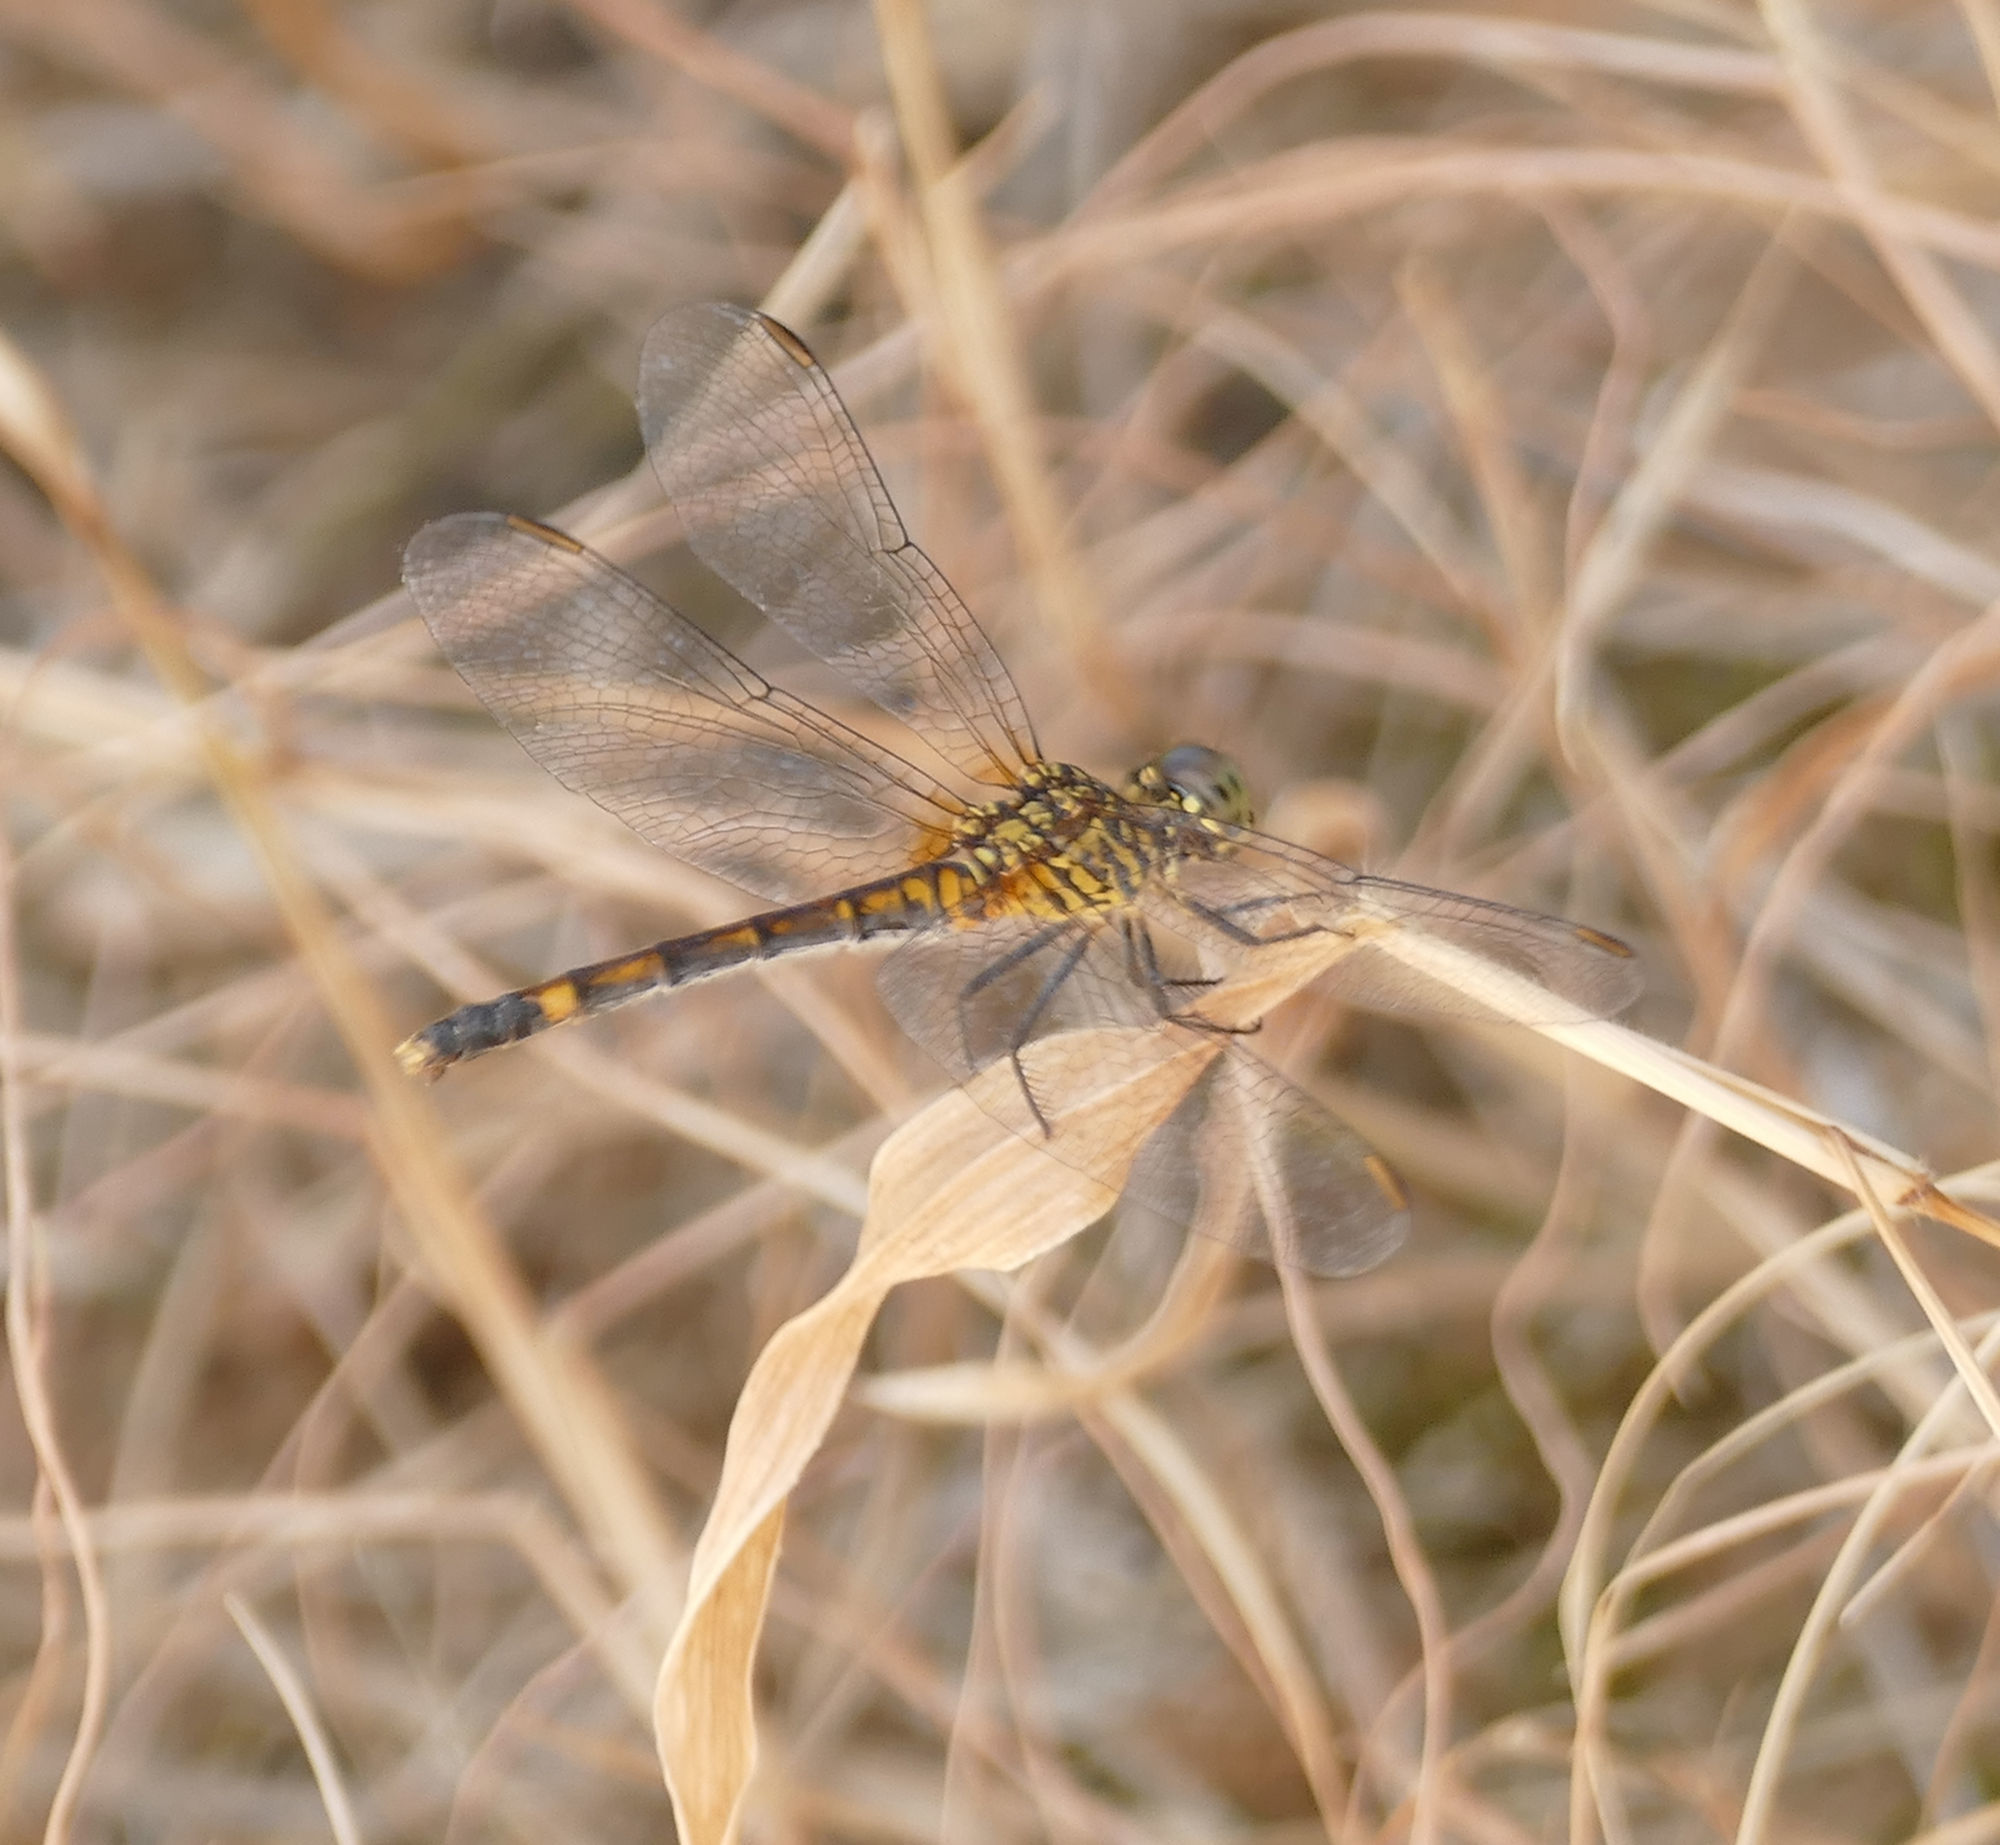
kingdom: Animalia
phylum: Arthropoda
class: Insecta
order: Odonata
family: Libellulidae
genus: Erythrodiplax
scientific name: Erythrodiplax berenice
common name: Seaside dragonlet
